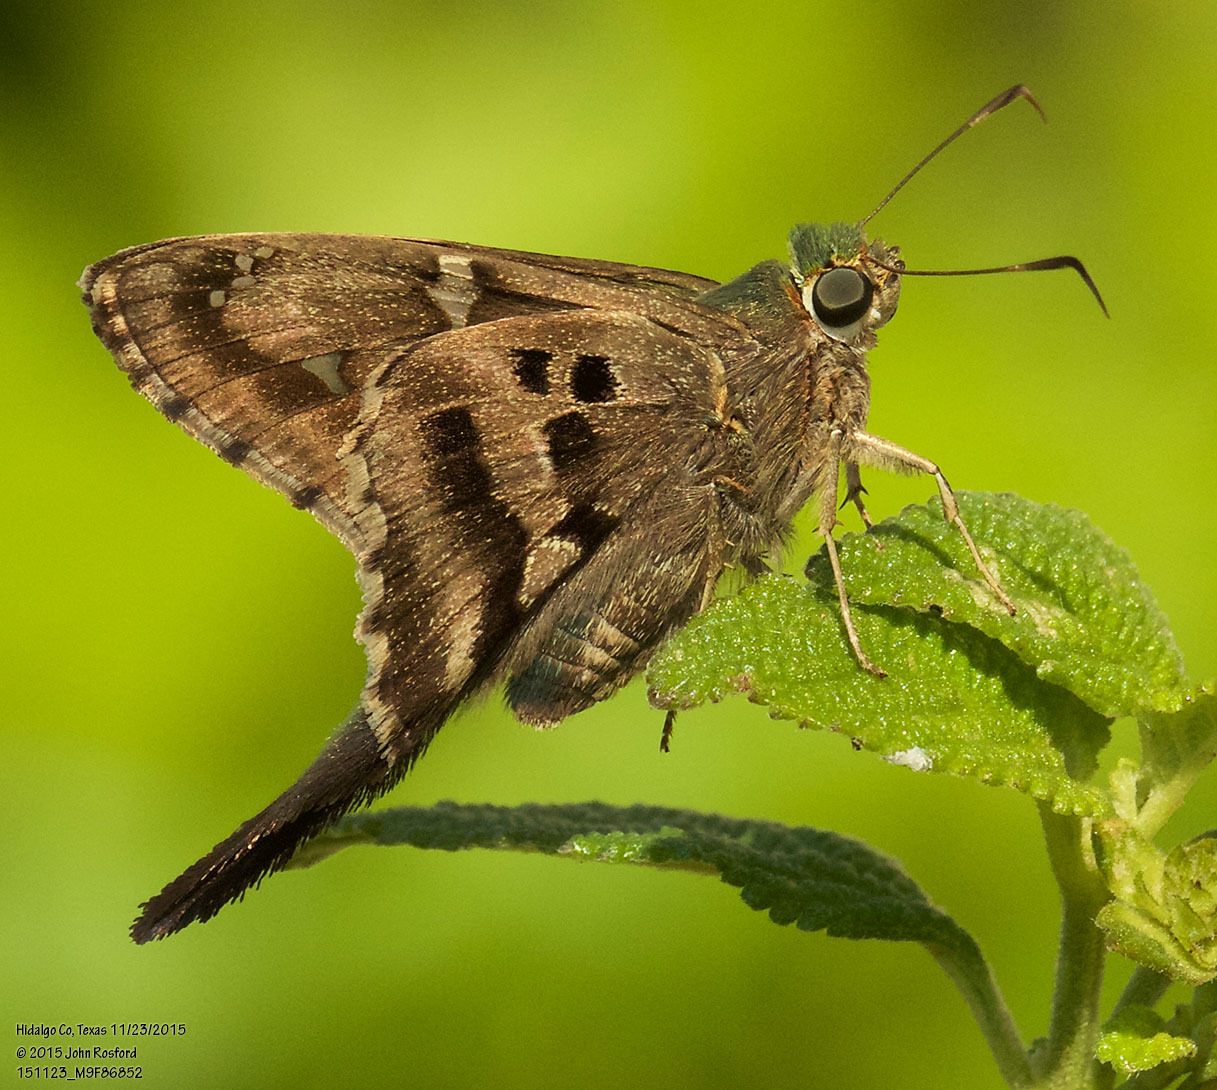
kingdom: Animalia
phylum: Arthropoda
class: Insecta
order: Lepidoptera
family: Hesperiidae
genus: Urbanus
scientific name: Urbanus proteus
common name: Long-tailed skipper
